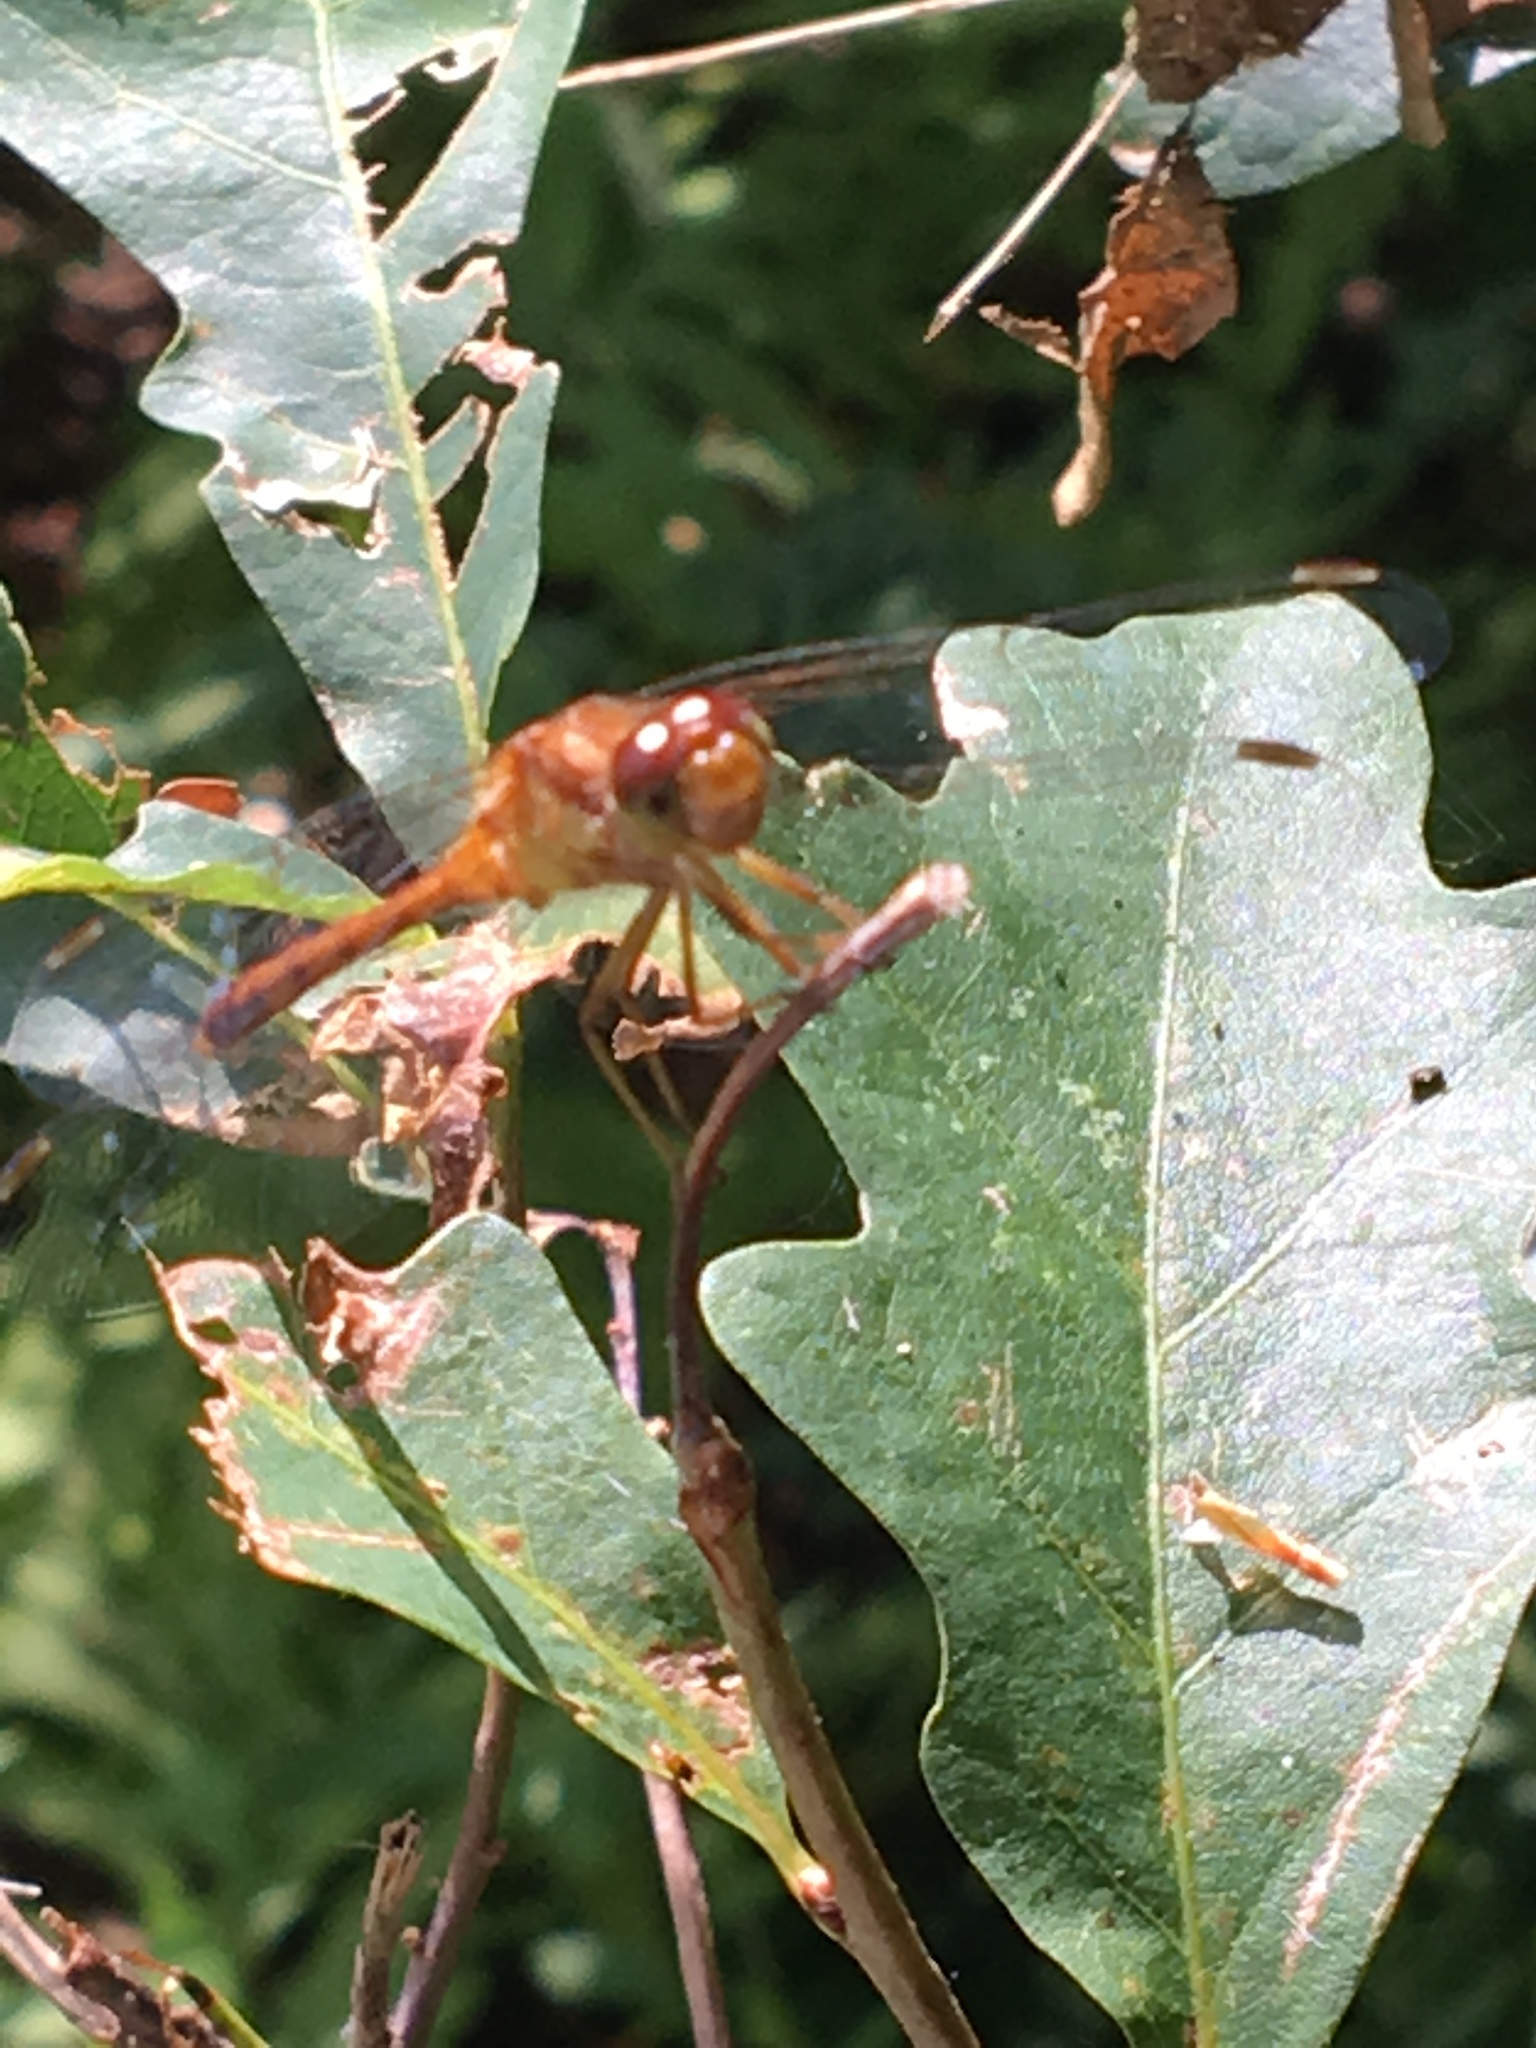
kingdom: Animalia
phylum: Arthropoda
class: Insecta
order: Odonata
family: Libellulidae
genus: Sympetrum
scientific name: Sympetrum vicinum
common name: Autumn meadowhawk
